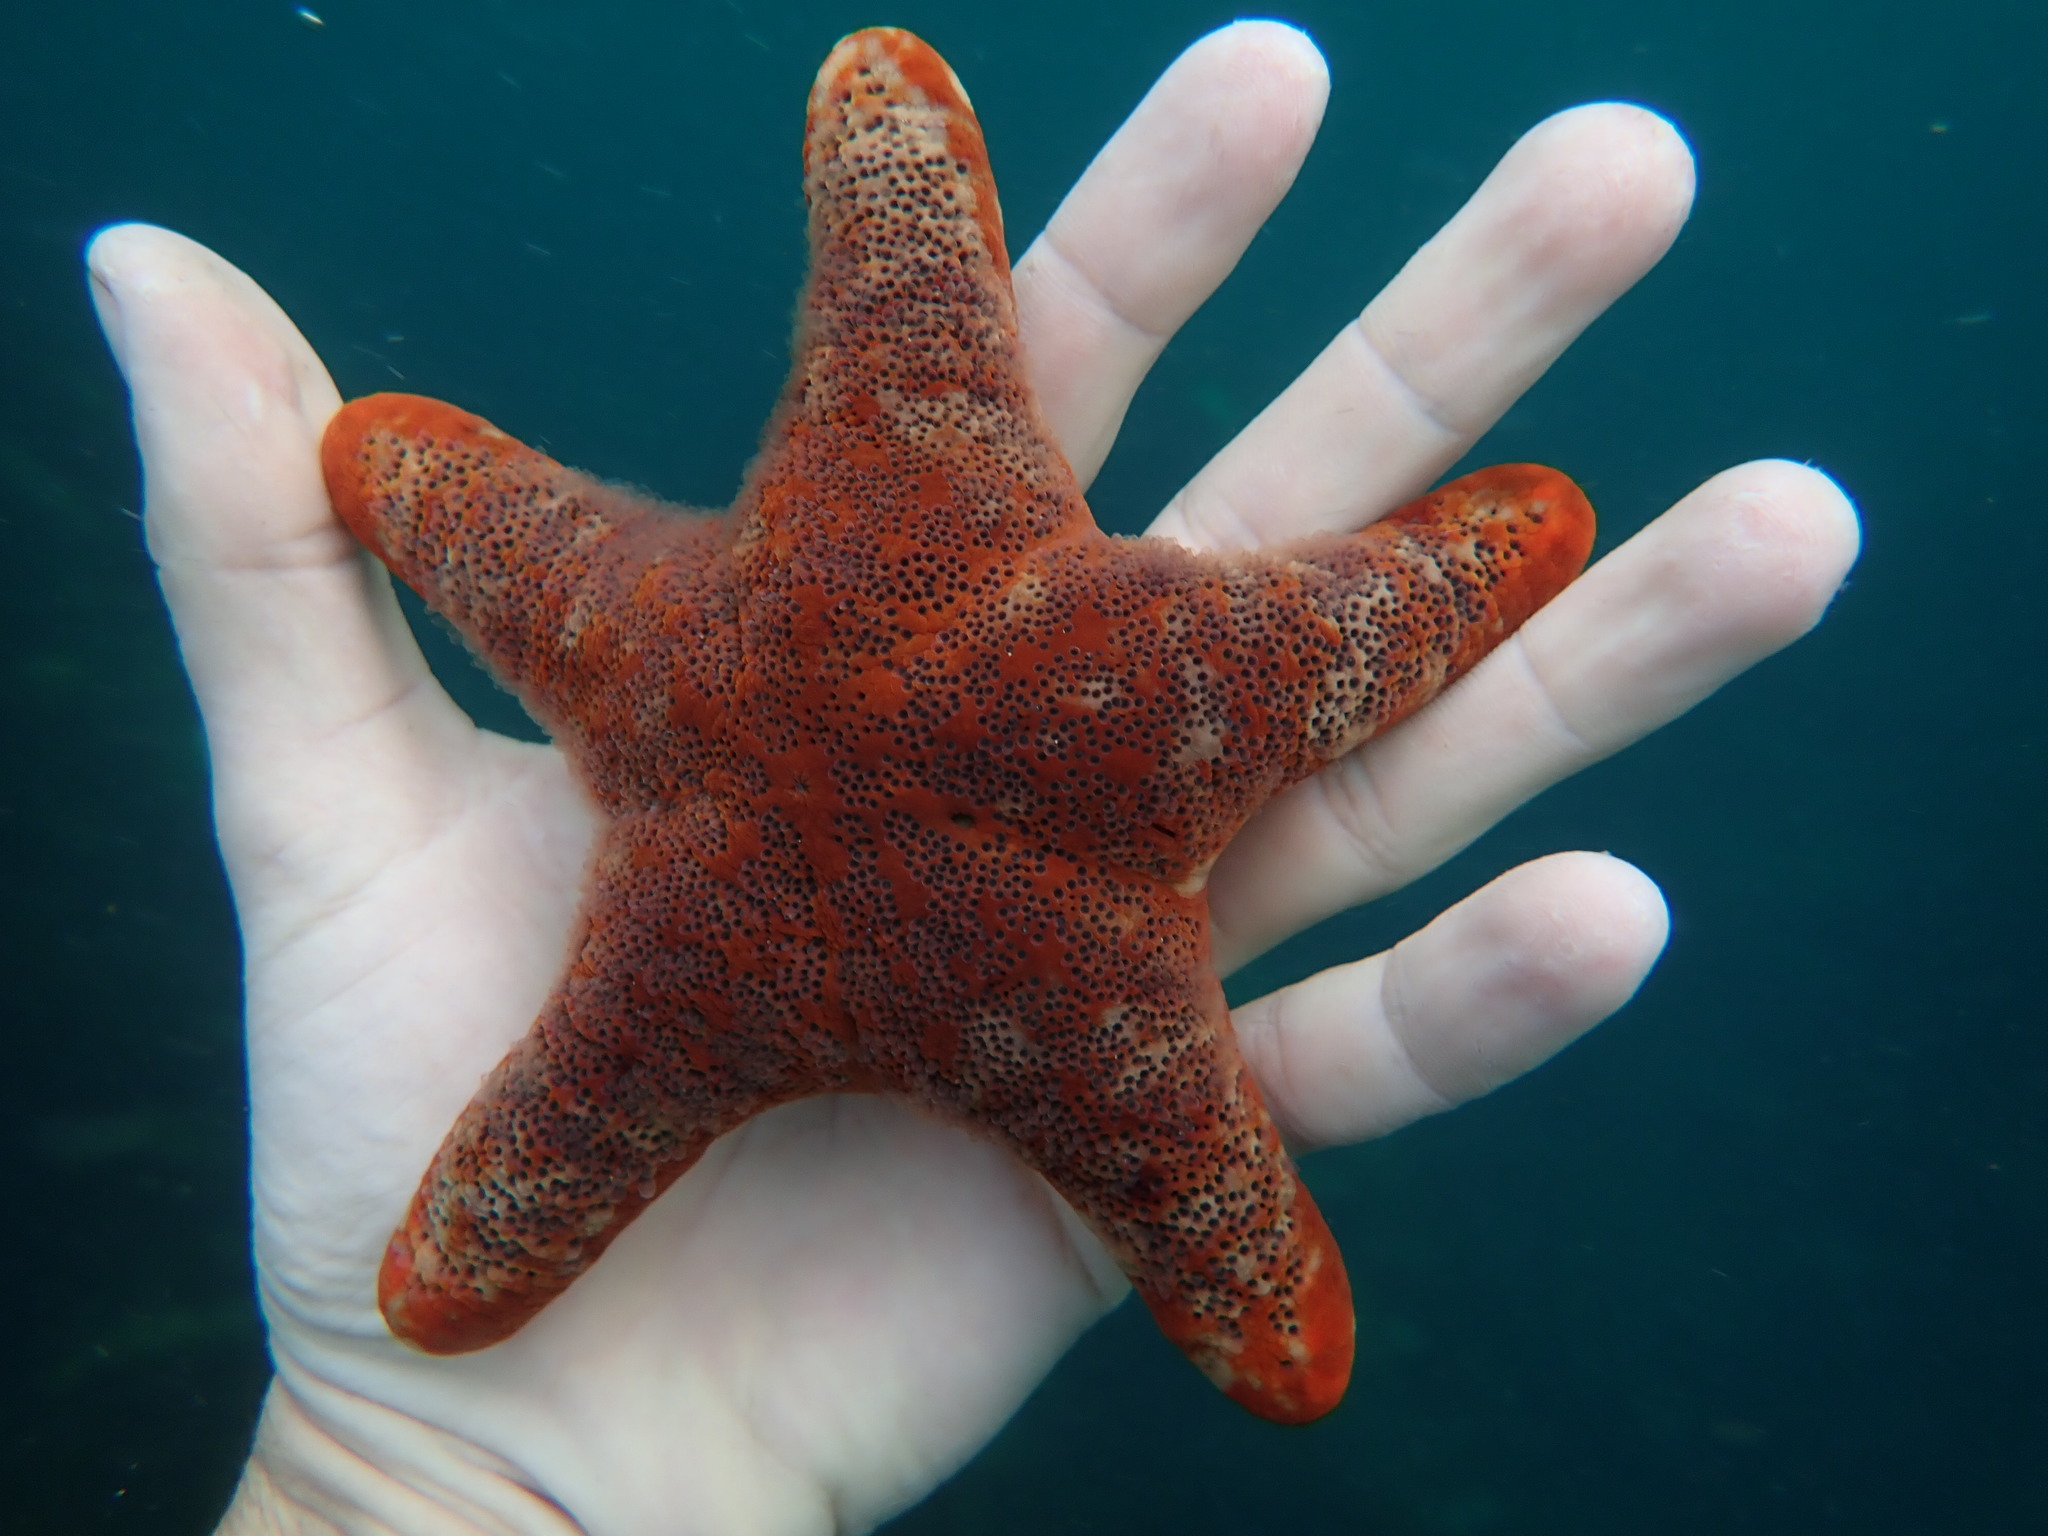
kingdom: Animalia
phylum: Echinodermata
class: Asteroidea
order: Valvatida
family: Asteropseidae
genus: Petricia
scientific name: Petricia vernicina
